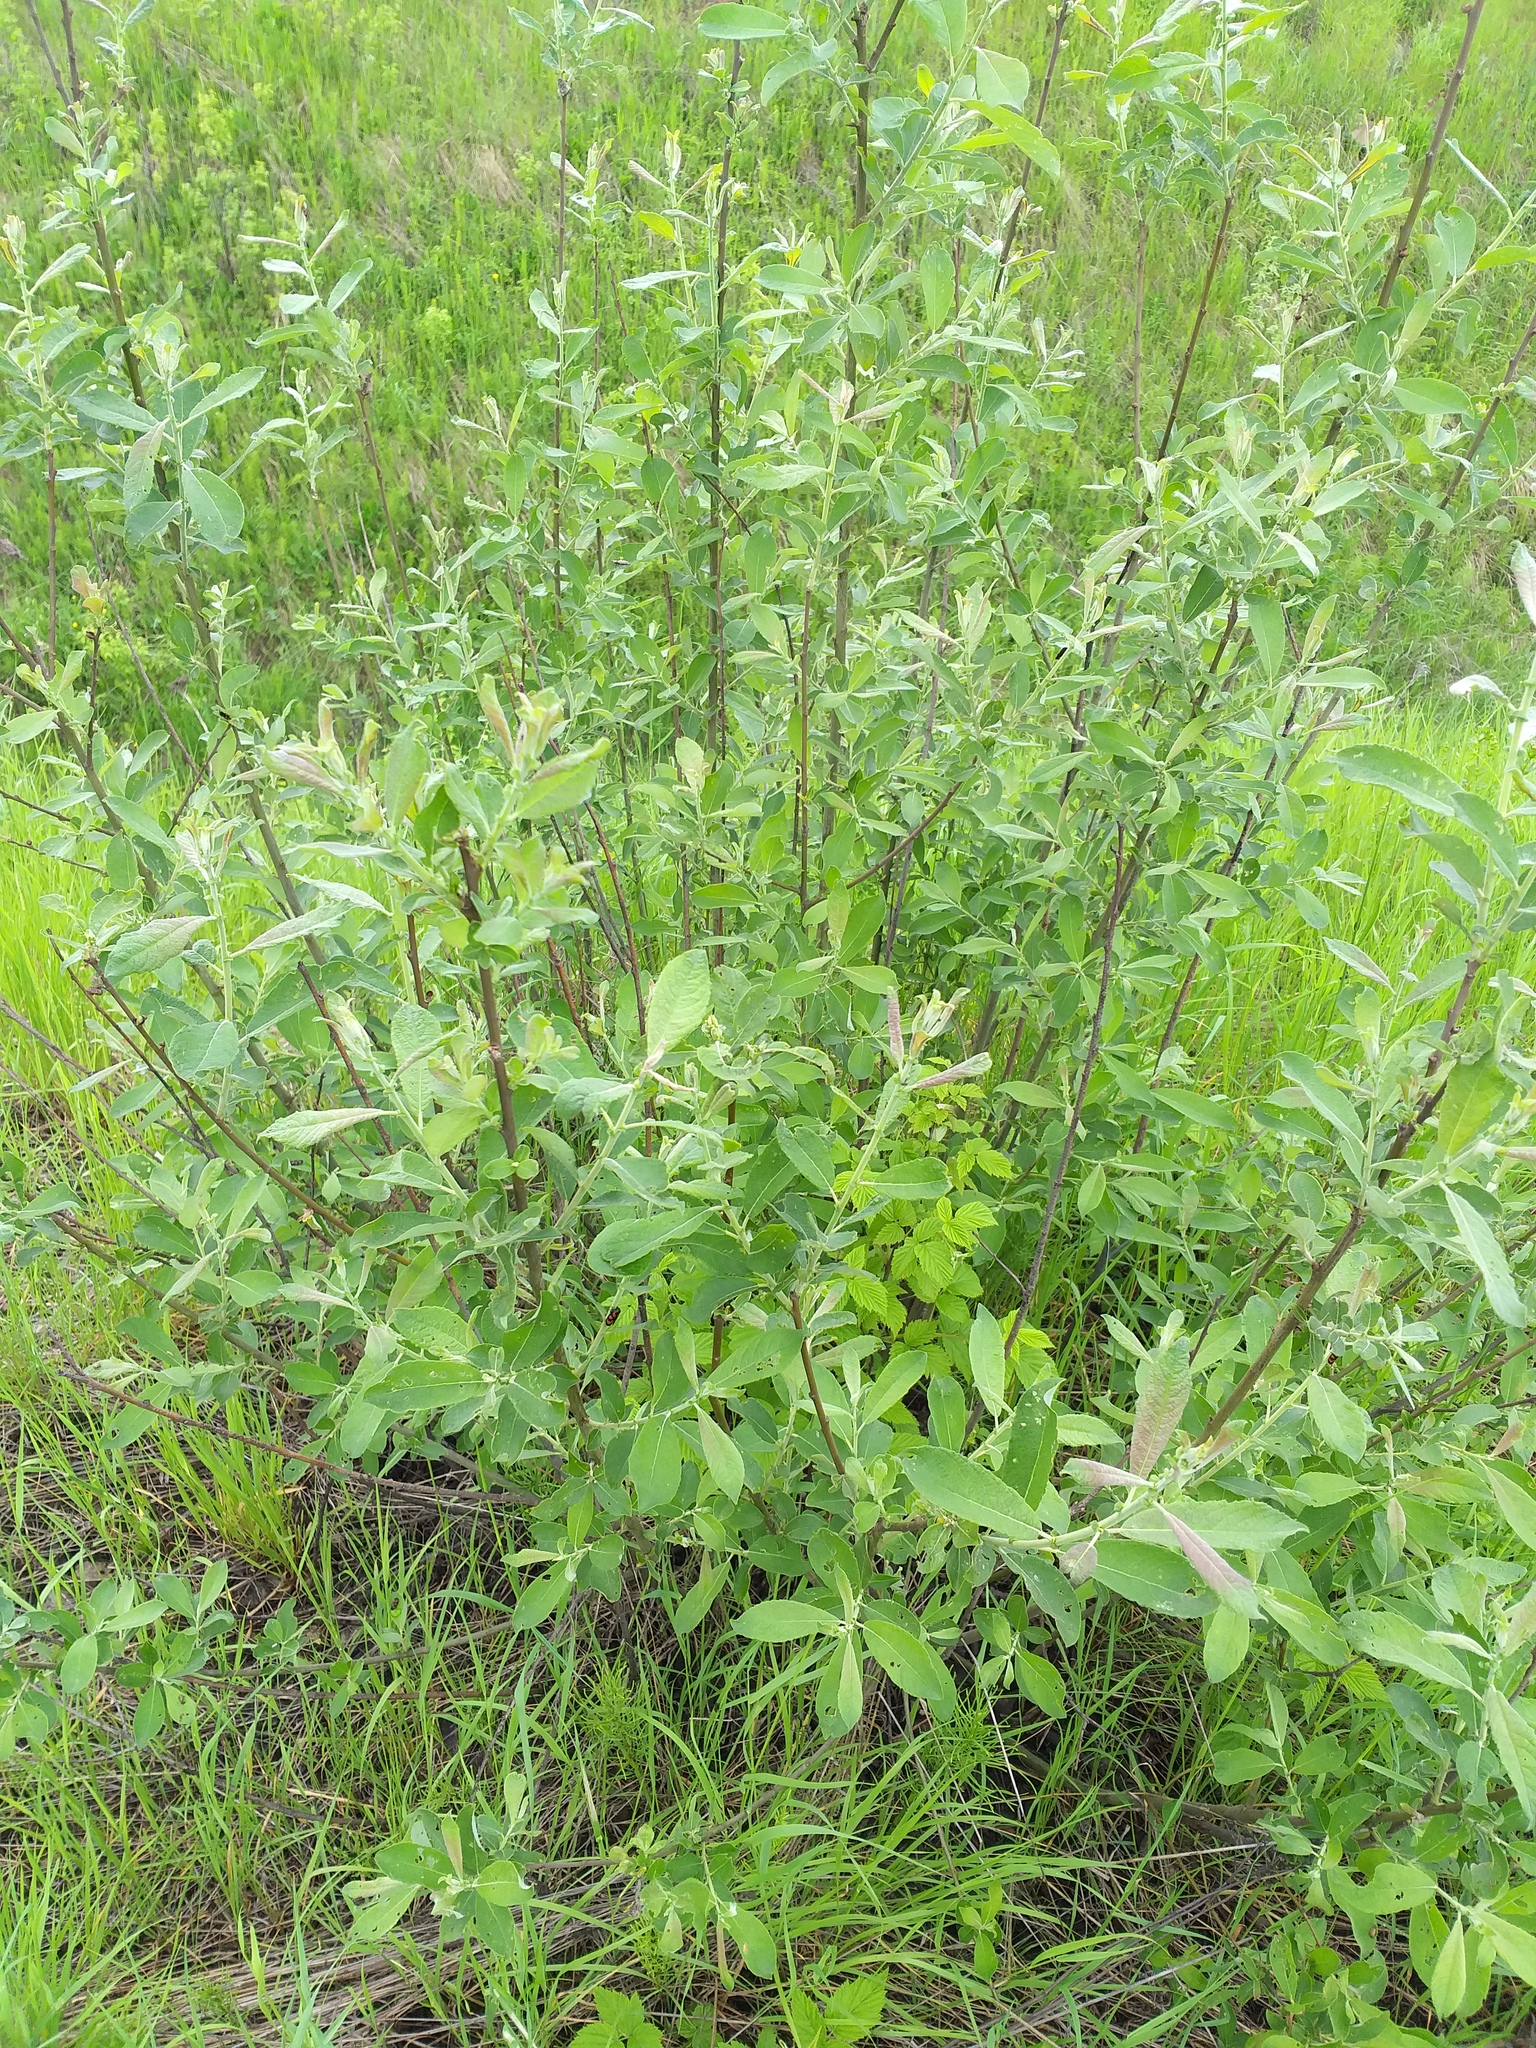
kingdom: Plantae
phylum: Tracheophyta
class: Magnoliopsida
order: Malpighiales
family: Salicaceae
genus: Salix
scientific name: Salix cinerea
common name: Common sallow
